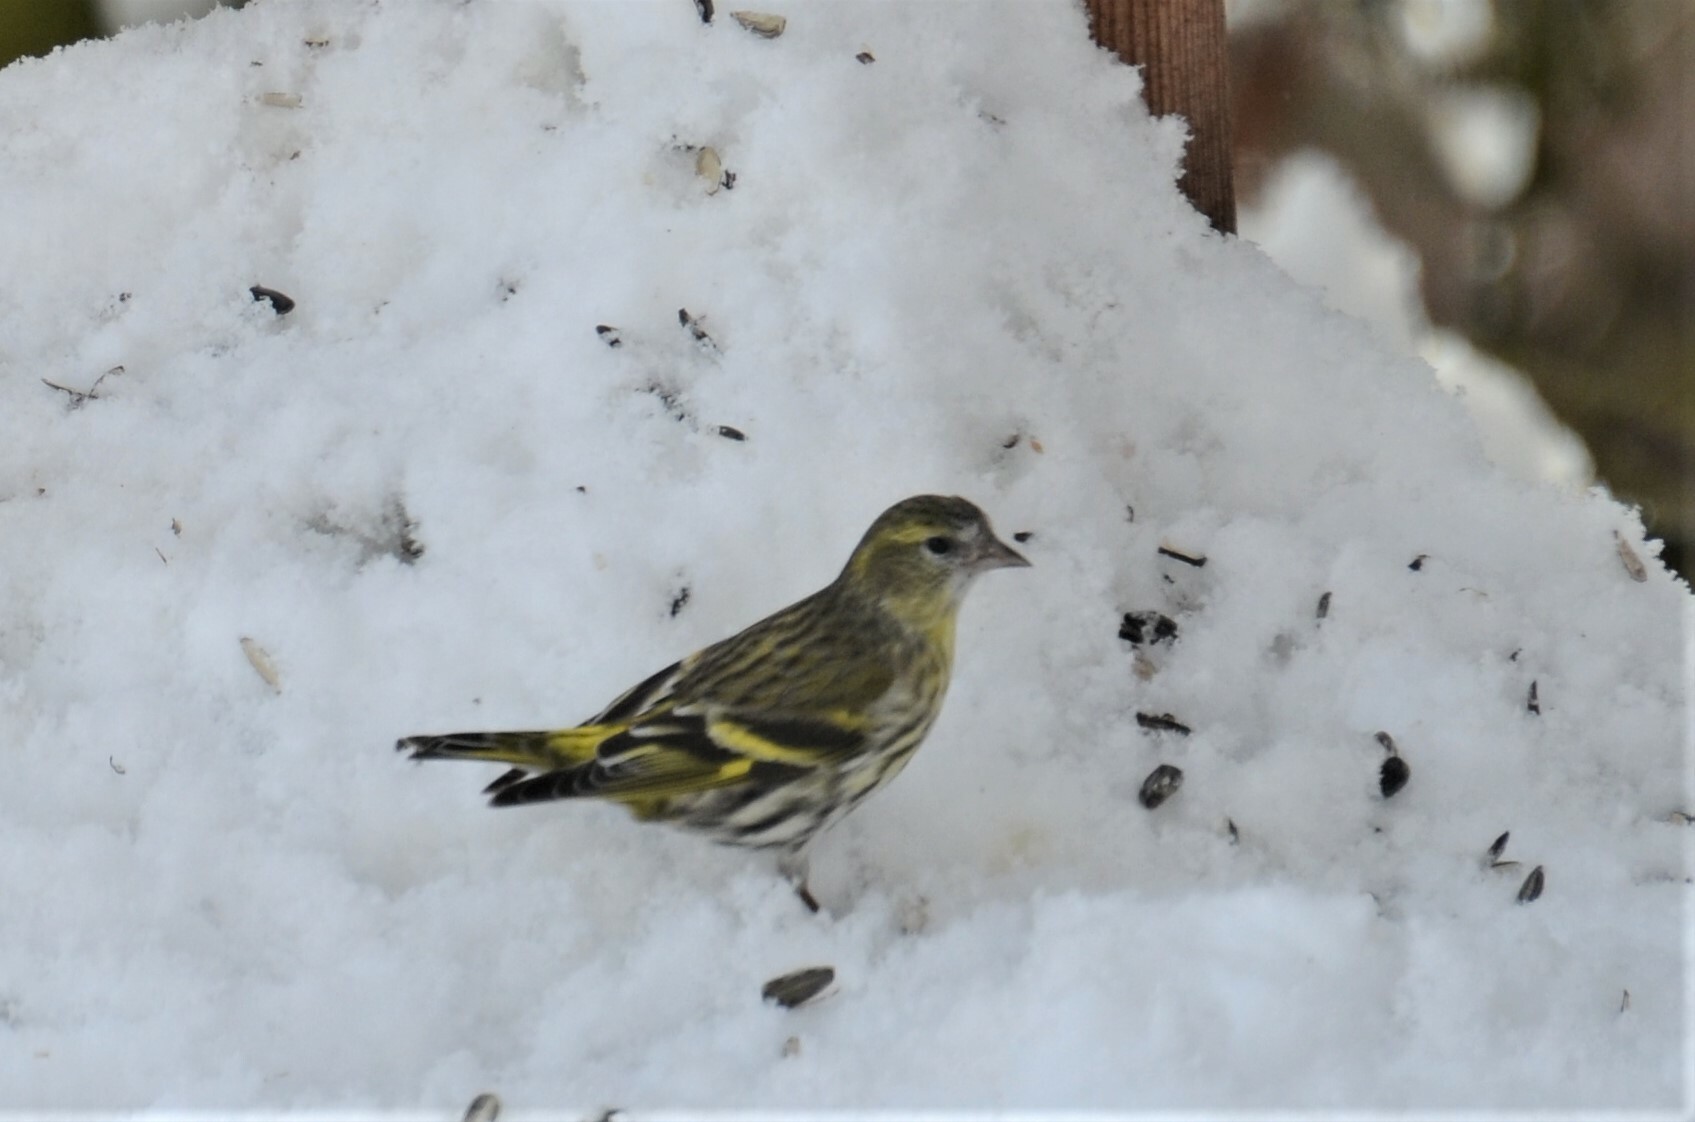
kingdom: Animalia
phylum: Chordata
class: Aves
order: Passeriformes
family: Fringillidae
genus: Spinus
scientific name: Spinus spinus
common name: Eurasian siskin
